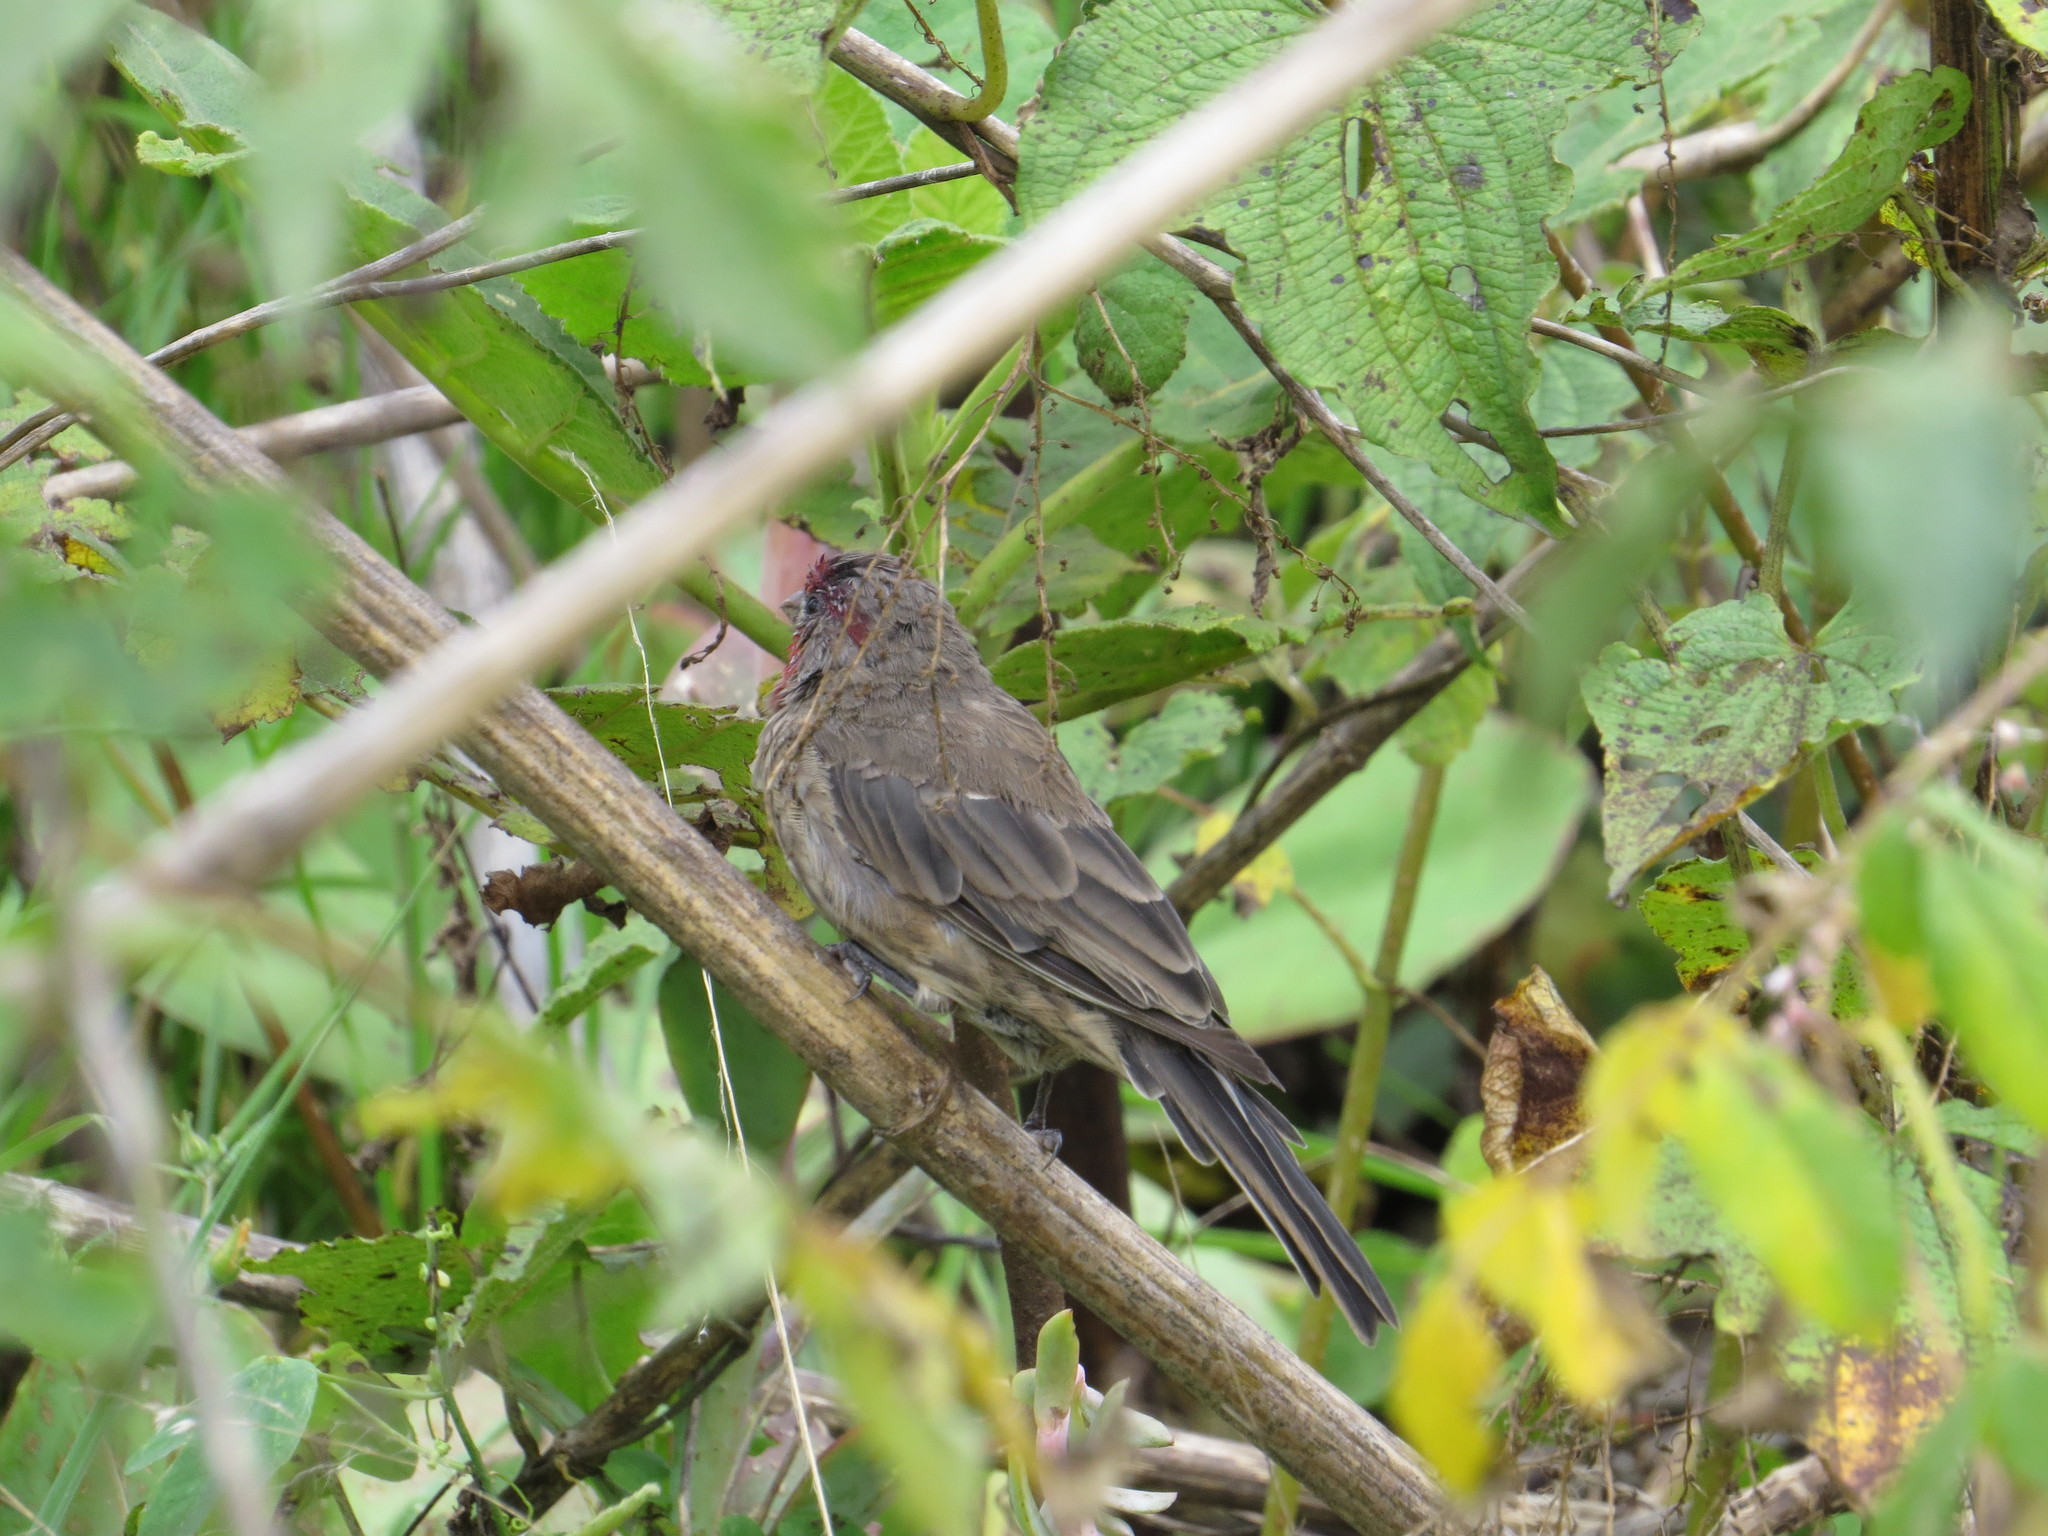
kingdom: Animalia
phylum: Chordata
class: Aves
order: Passeriformes
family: Fringillidae
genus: Haemorhous
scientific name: Haemorhous mexicanus
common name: House finch
